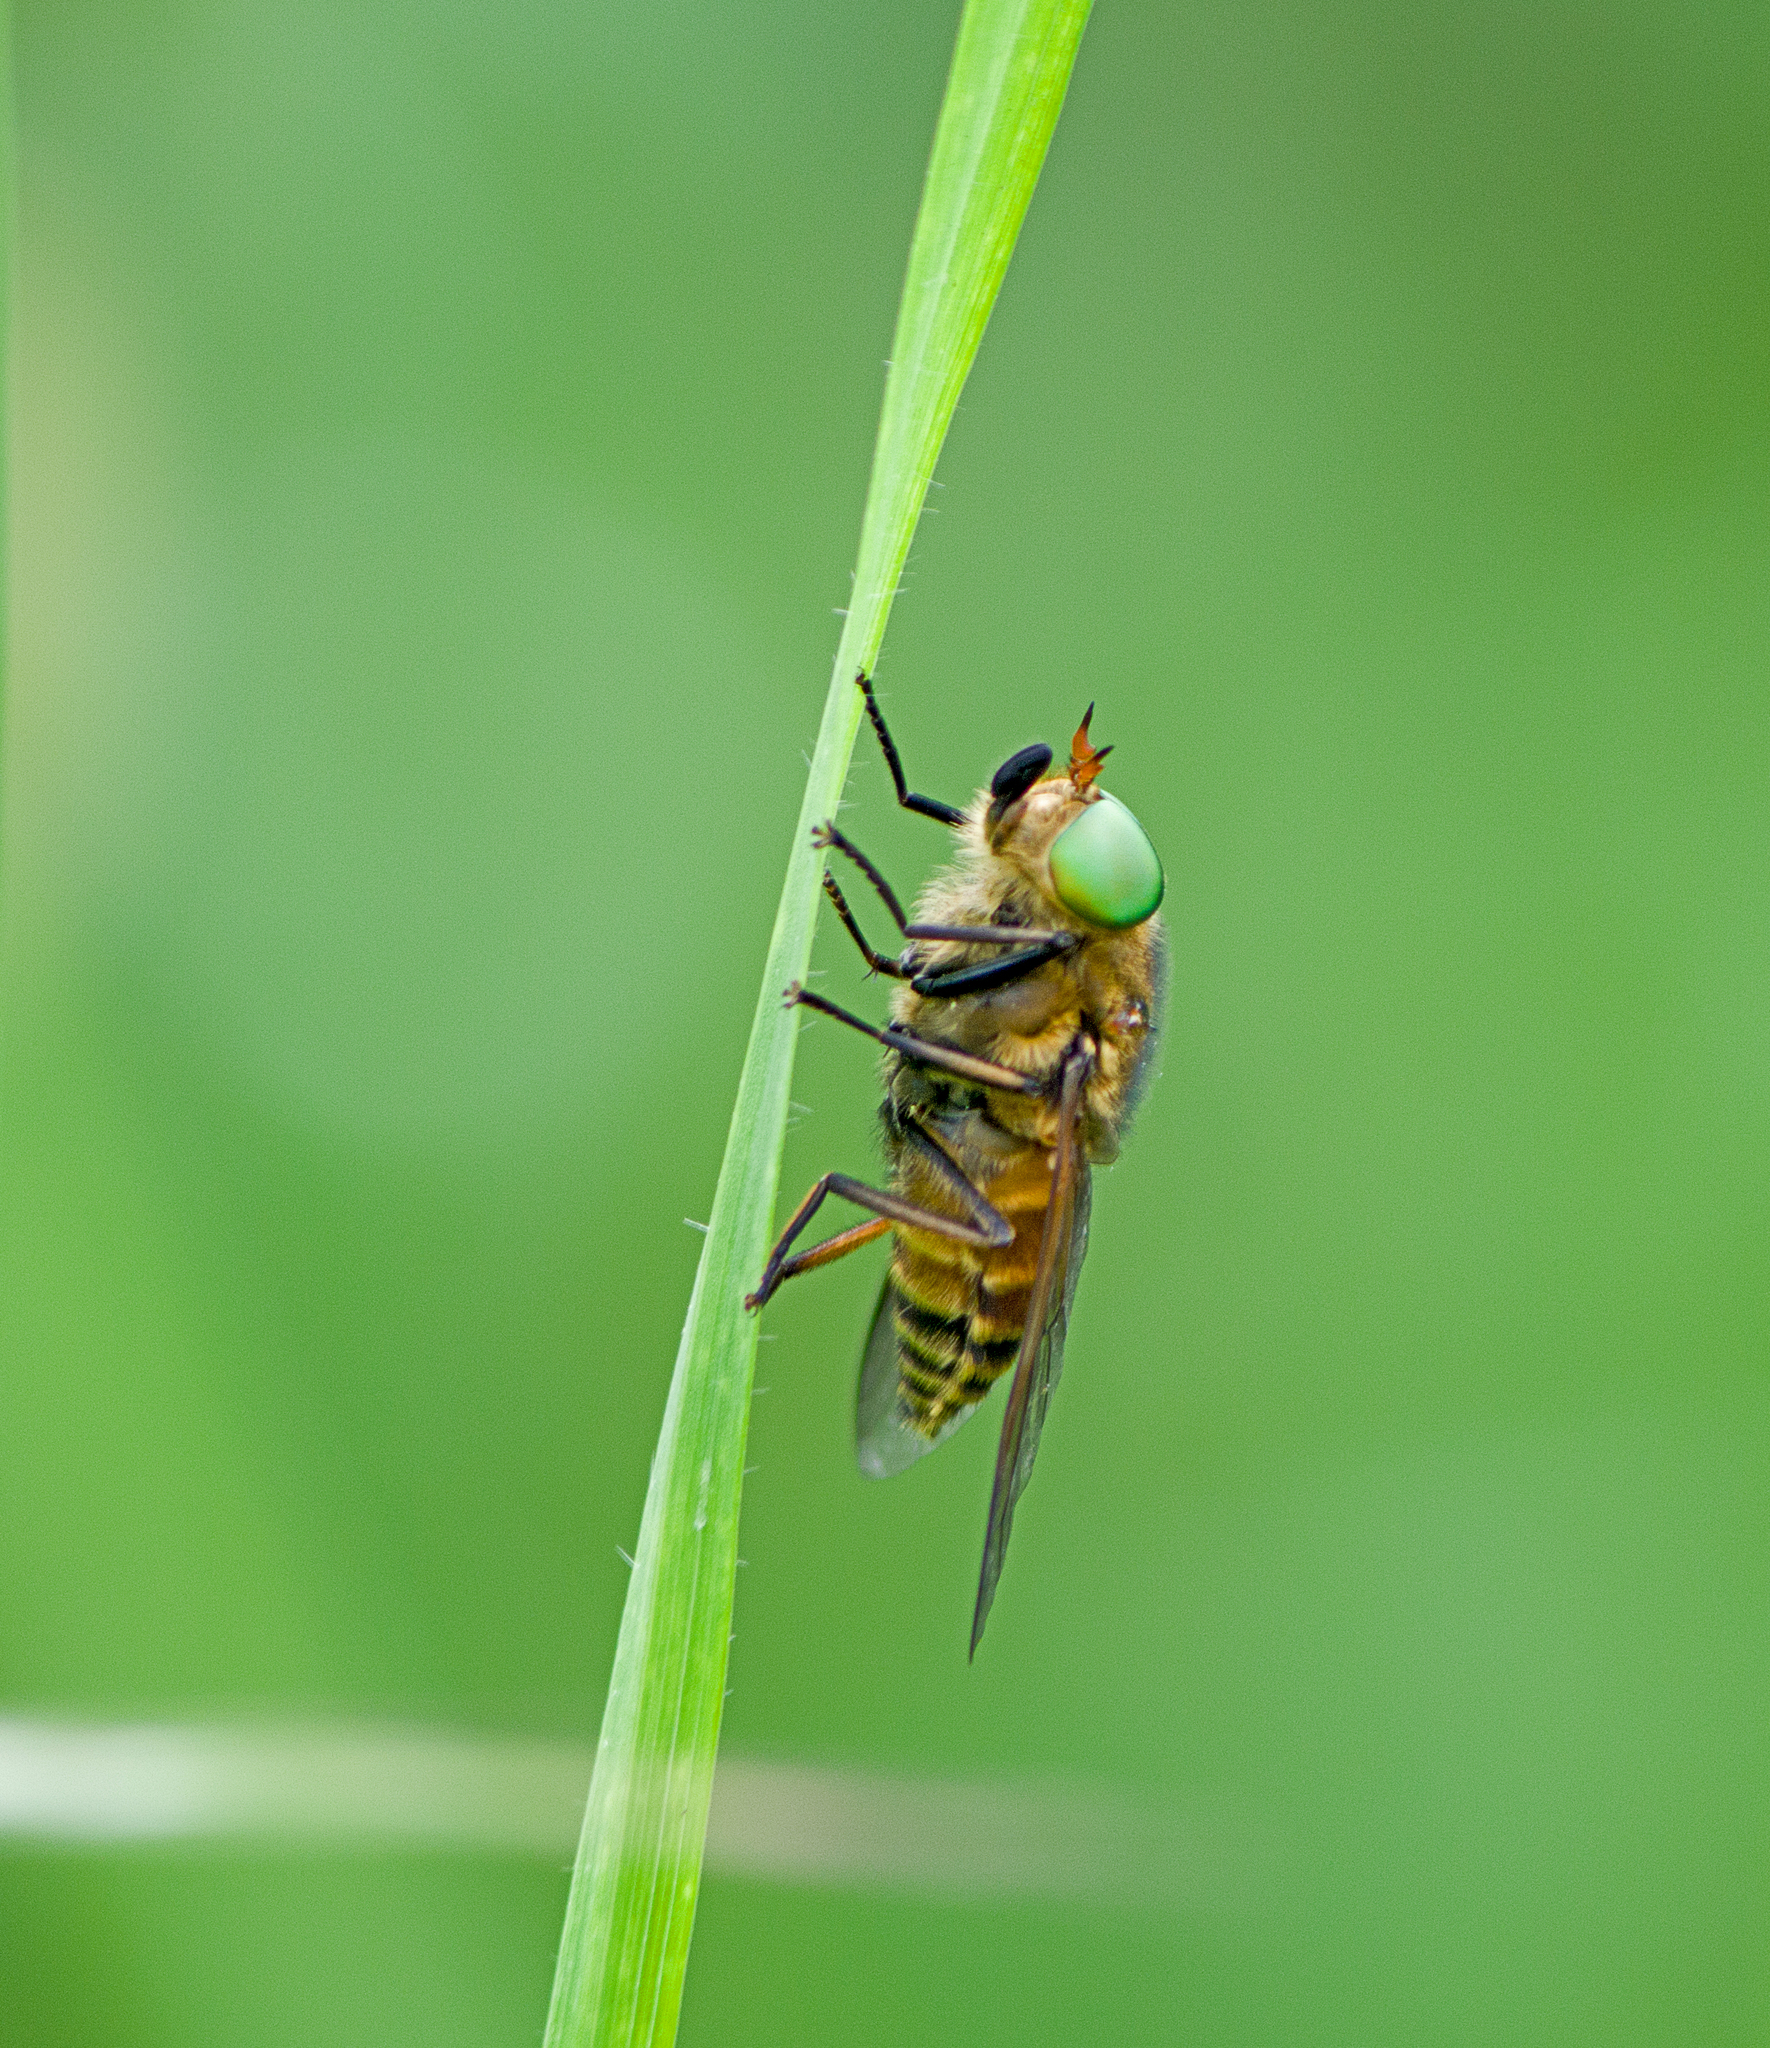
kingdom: Animalia
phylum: Arthropoda
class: Insecta
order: Diptera
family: Tabanidae
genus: Philipomyia
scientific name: Philipomyia aprica
